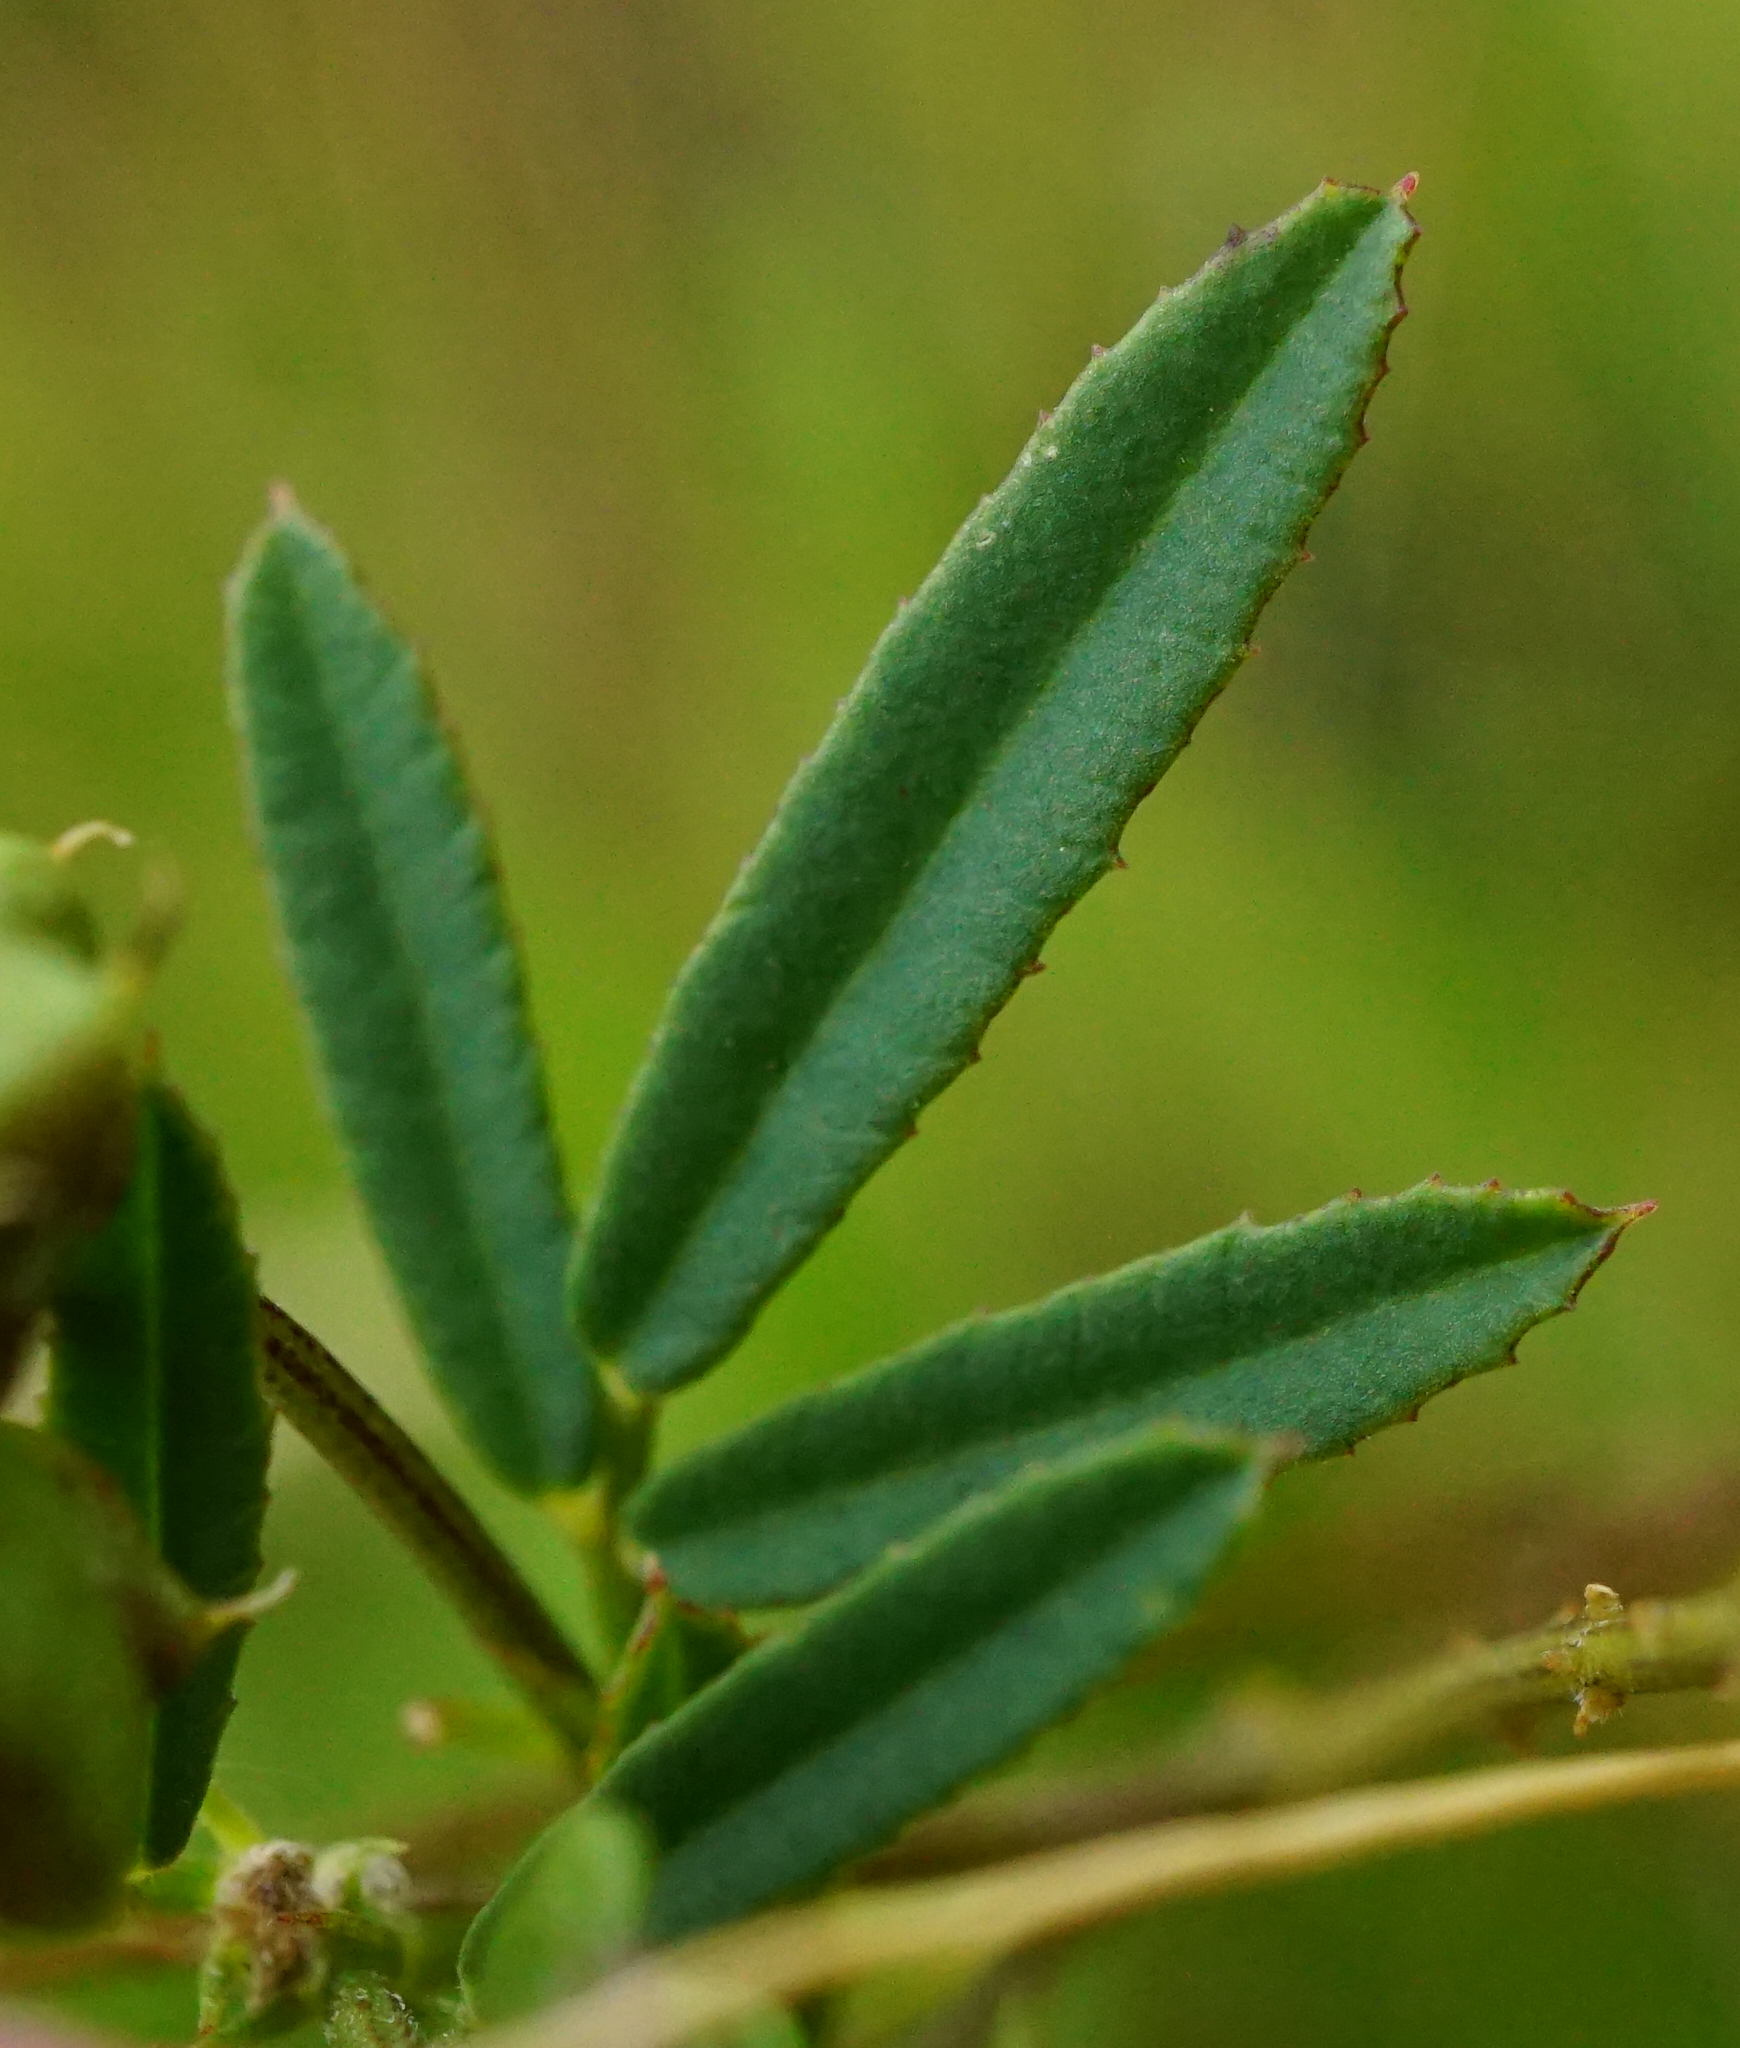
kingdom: Plantae
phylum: Tracheophyta
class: Magnoliopsida
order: Fabales
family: Fabaceae
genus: Melilotus
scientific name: Melilotus dentatus
